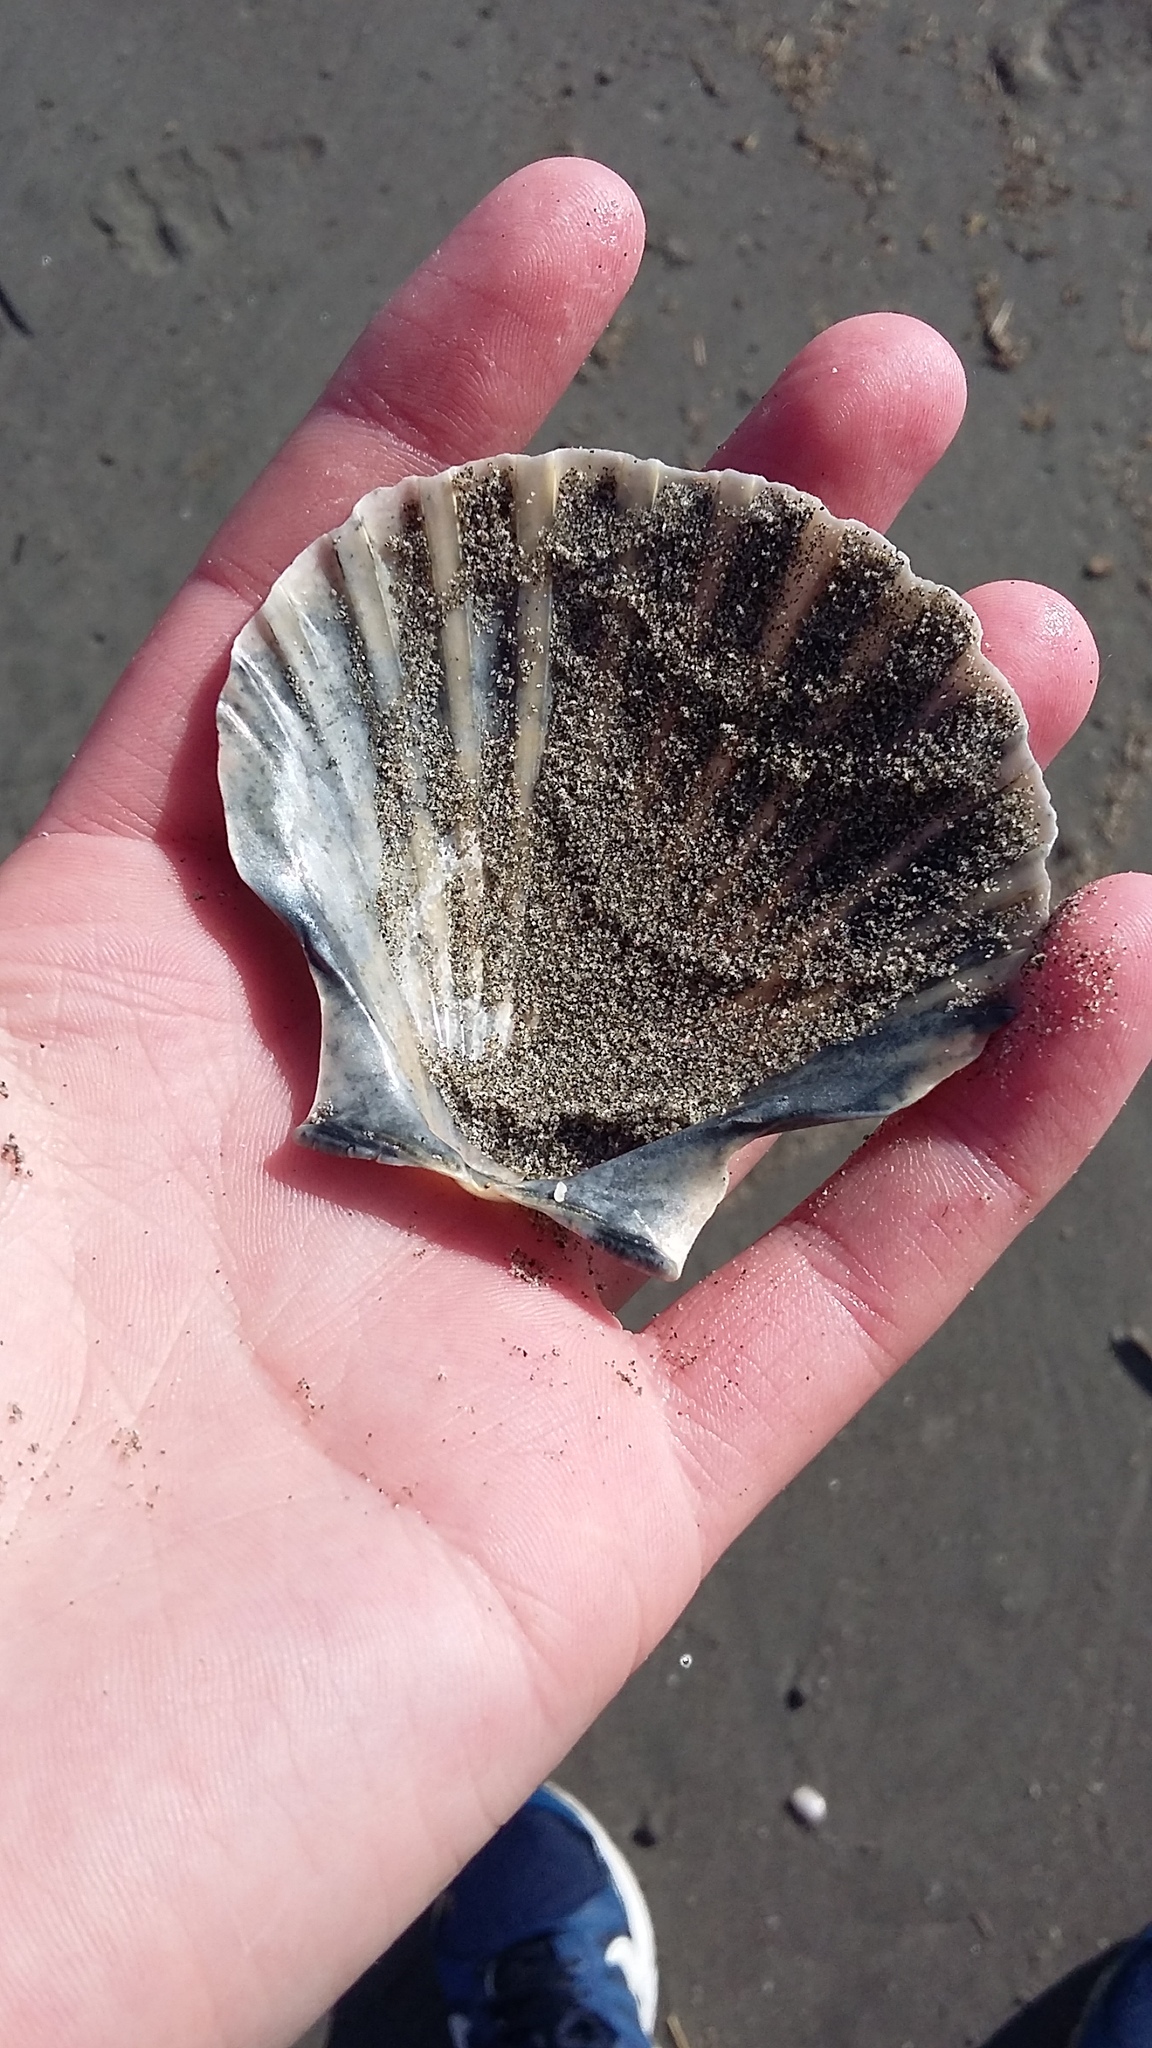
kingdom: Animalia
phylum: Mollusca
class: Bivalvia
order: Pectinida
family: Pectinidae
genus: Pecten
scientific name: Pecten novaezelandiae
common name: New zealand scallop
